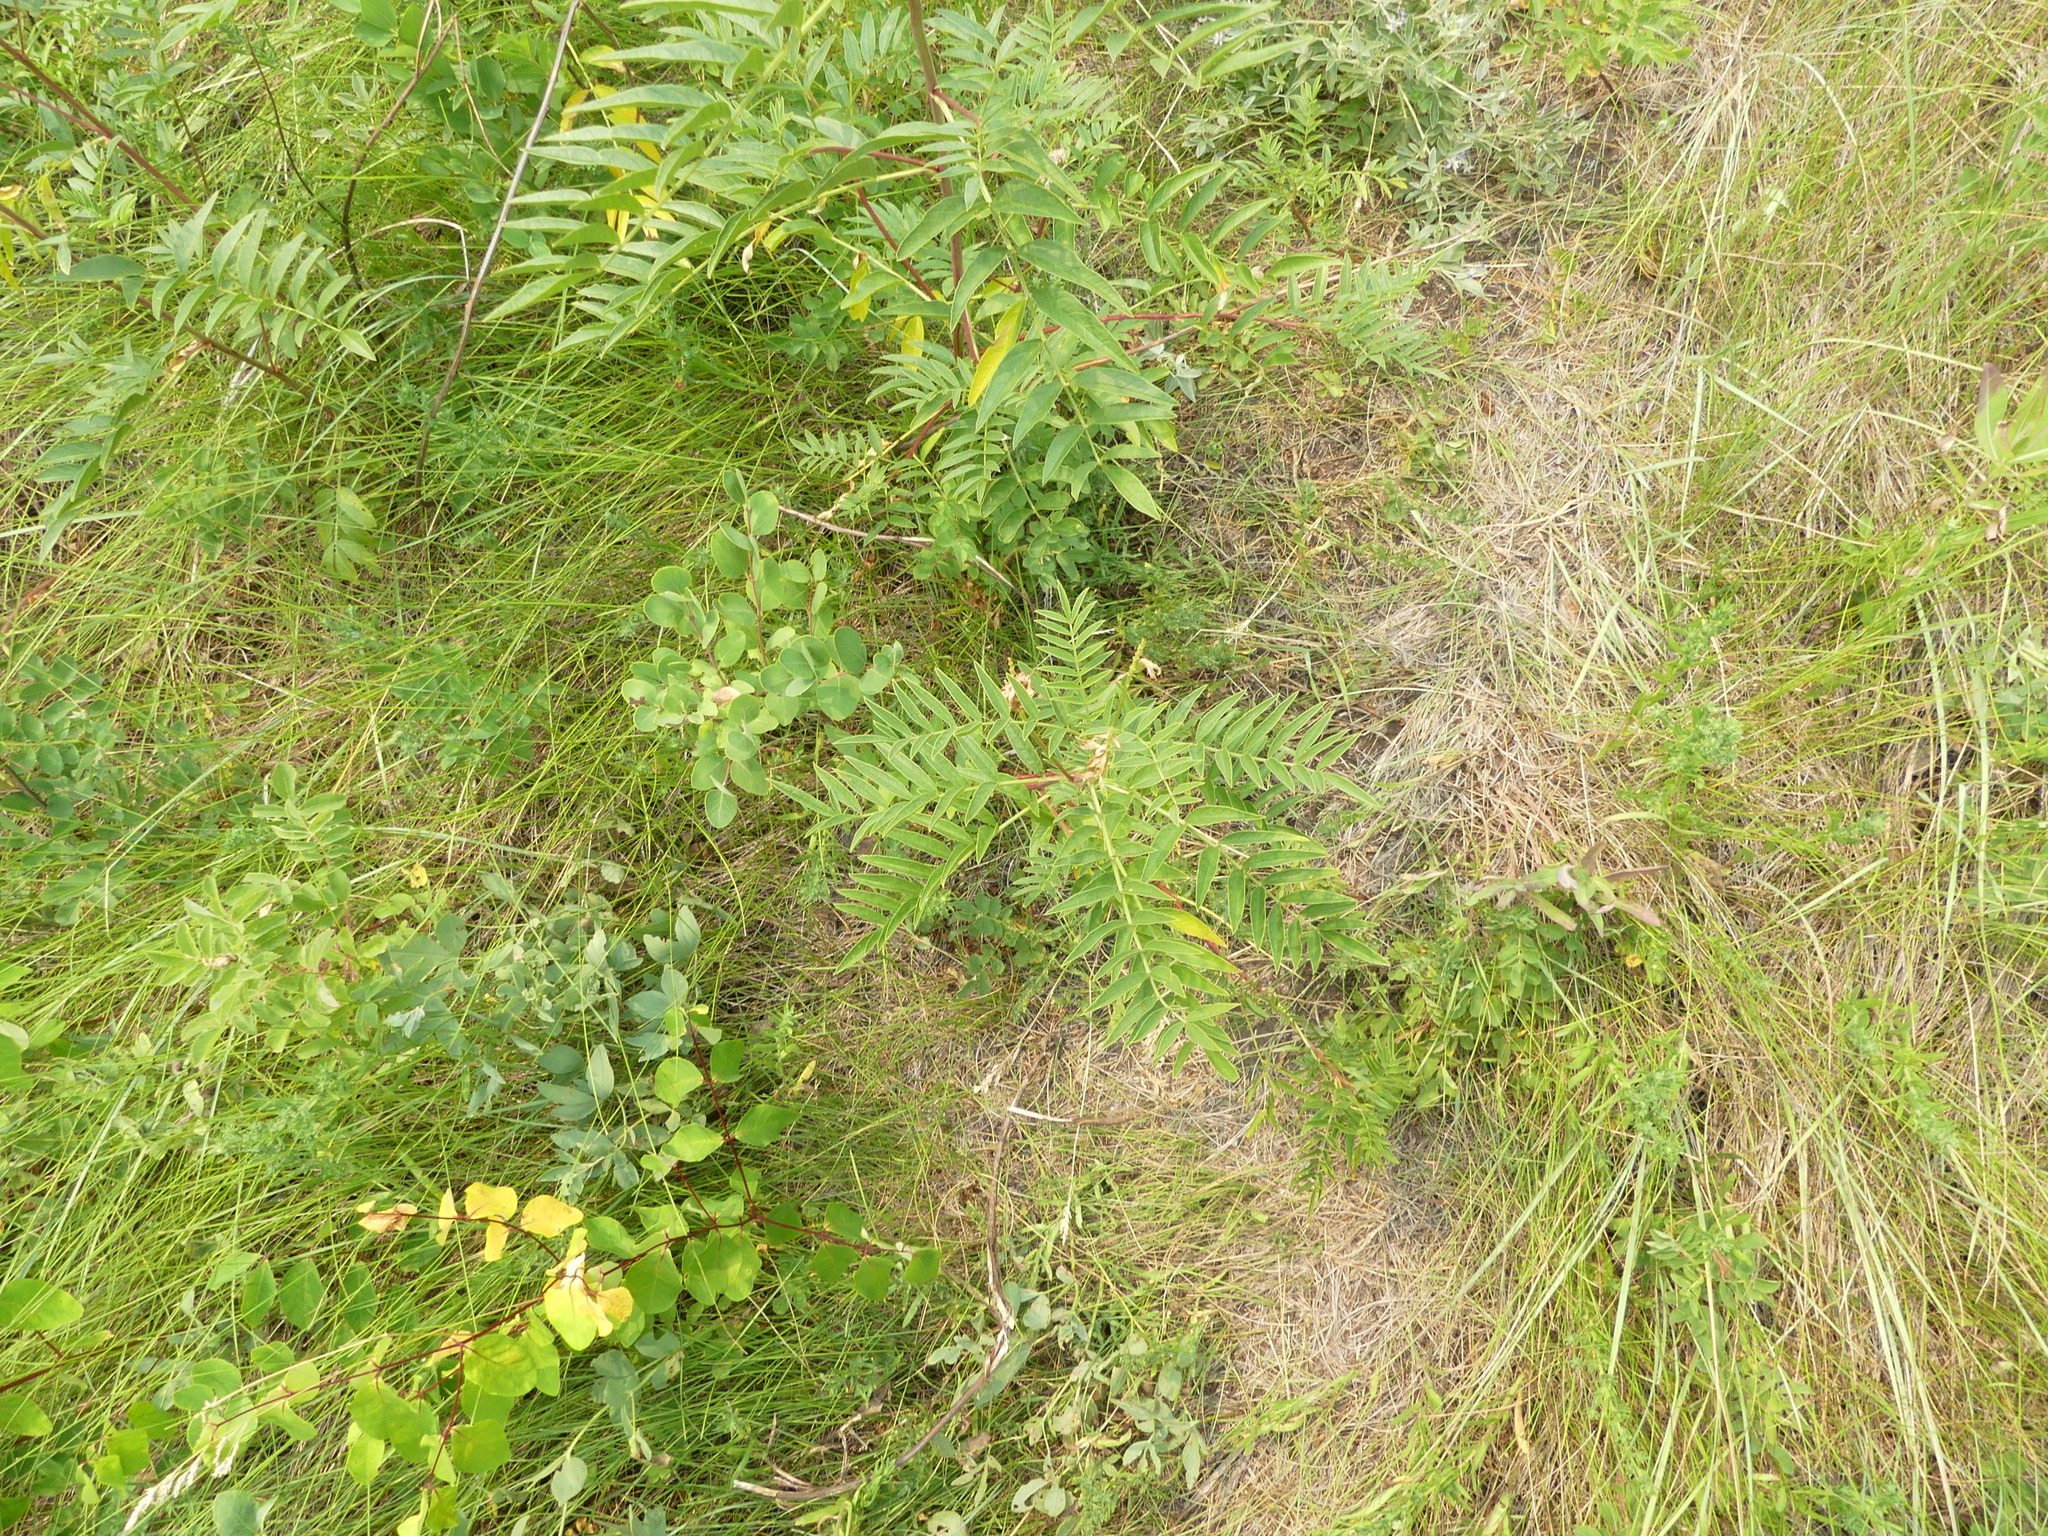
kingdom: Plantae
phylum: Tracheophyta
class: Magnoliopsida
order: Fabales
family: Fabaceae
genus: Glycyrrhiza
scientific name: Glycyrrhiza lepidota
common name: American liquorice
